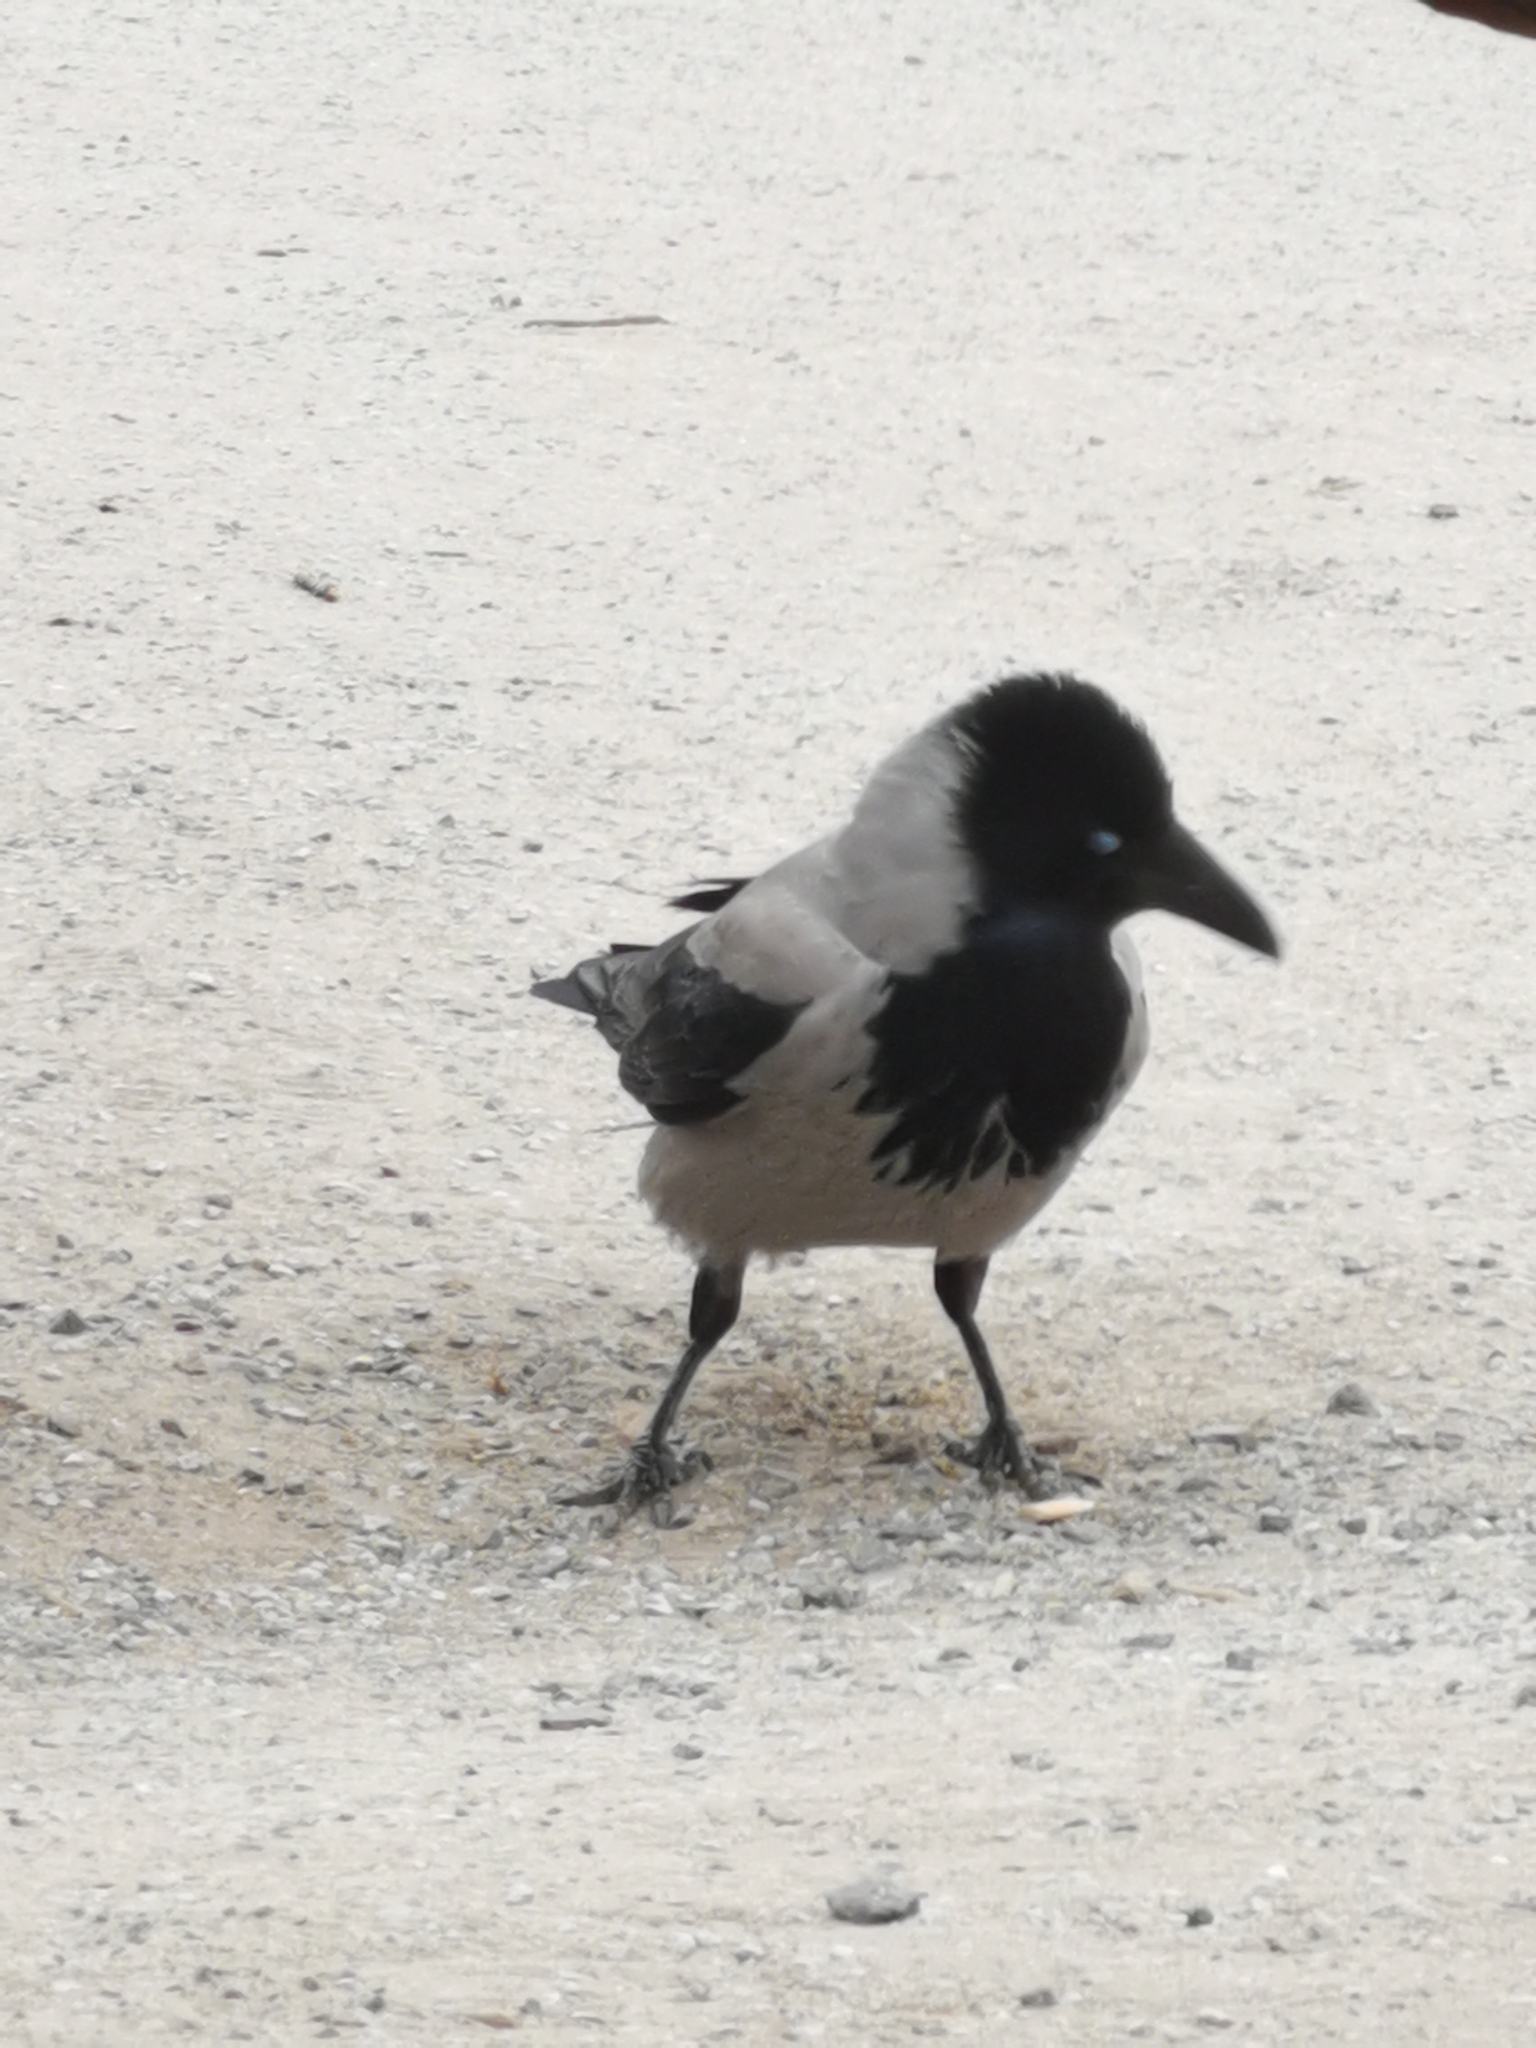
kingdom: Animalia
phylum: Chordata
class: Aves
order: Passeriformes
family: Corvidae
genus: Corvus
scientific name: Corvus cornix
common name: Hooded crow
